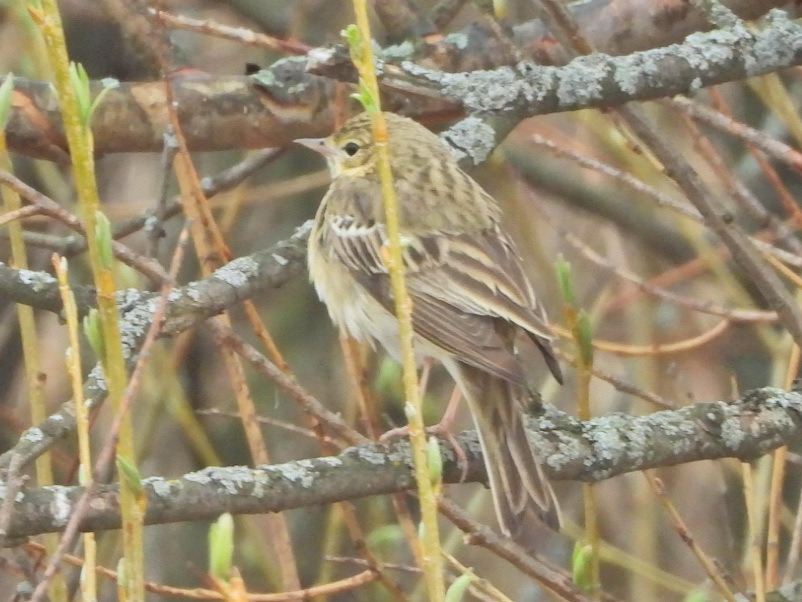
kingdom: Animalia
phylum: Chordata
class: Aves
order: Passeriformes
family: Motacillidae
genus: Anthus
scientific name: Anthus trivialis
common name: Tree pipit
